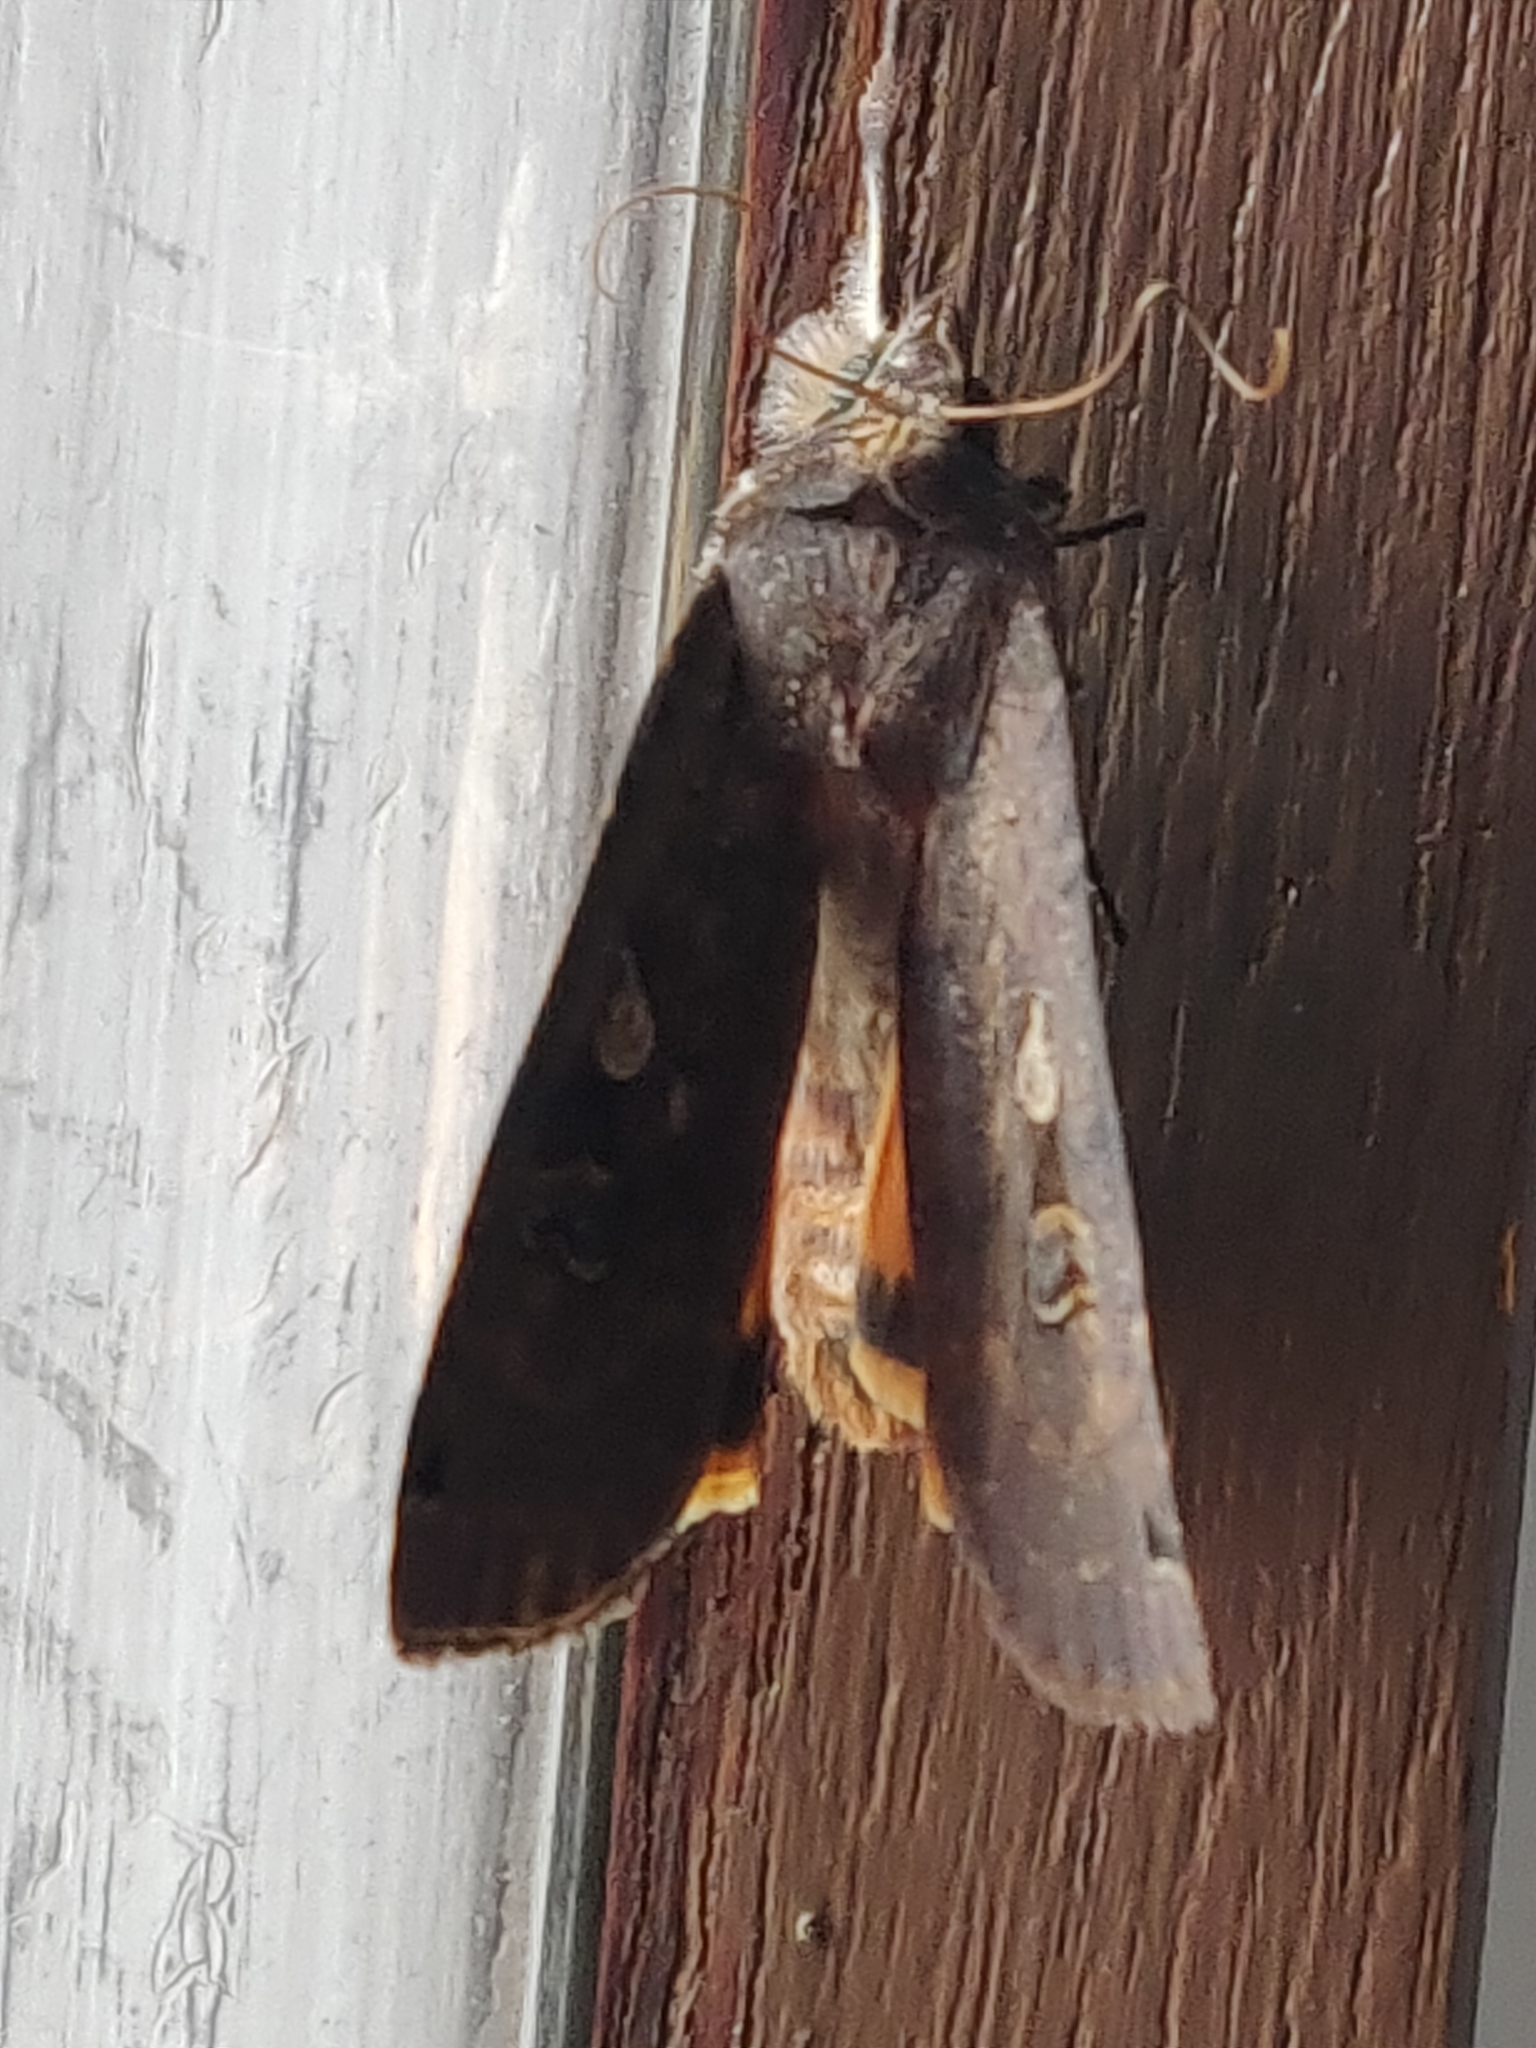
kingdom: Animalia
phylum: Arthropoda
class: Insecta
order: Lepidoptera
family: Noctuidae
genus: Noctua
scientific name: Noctua pronuba
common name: Large yellow underwing
